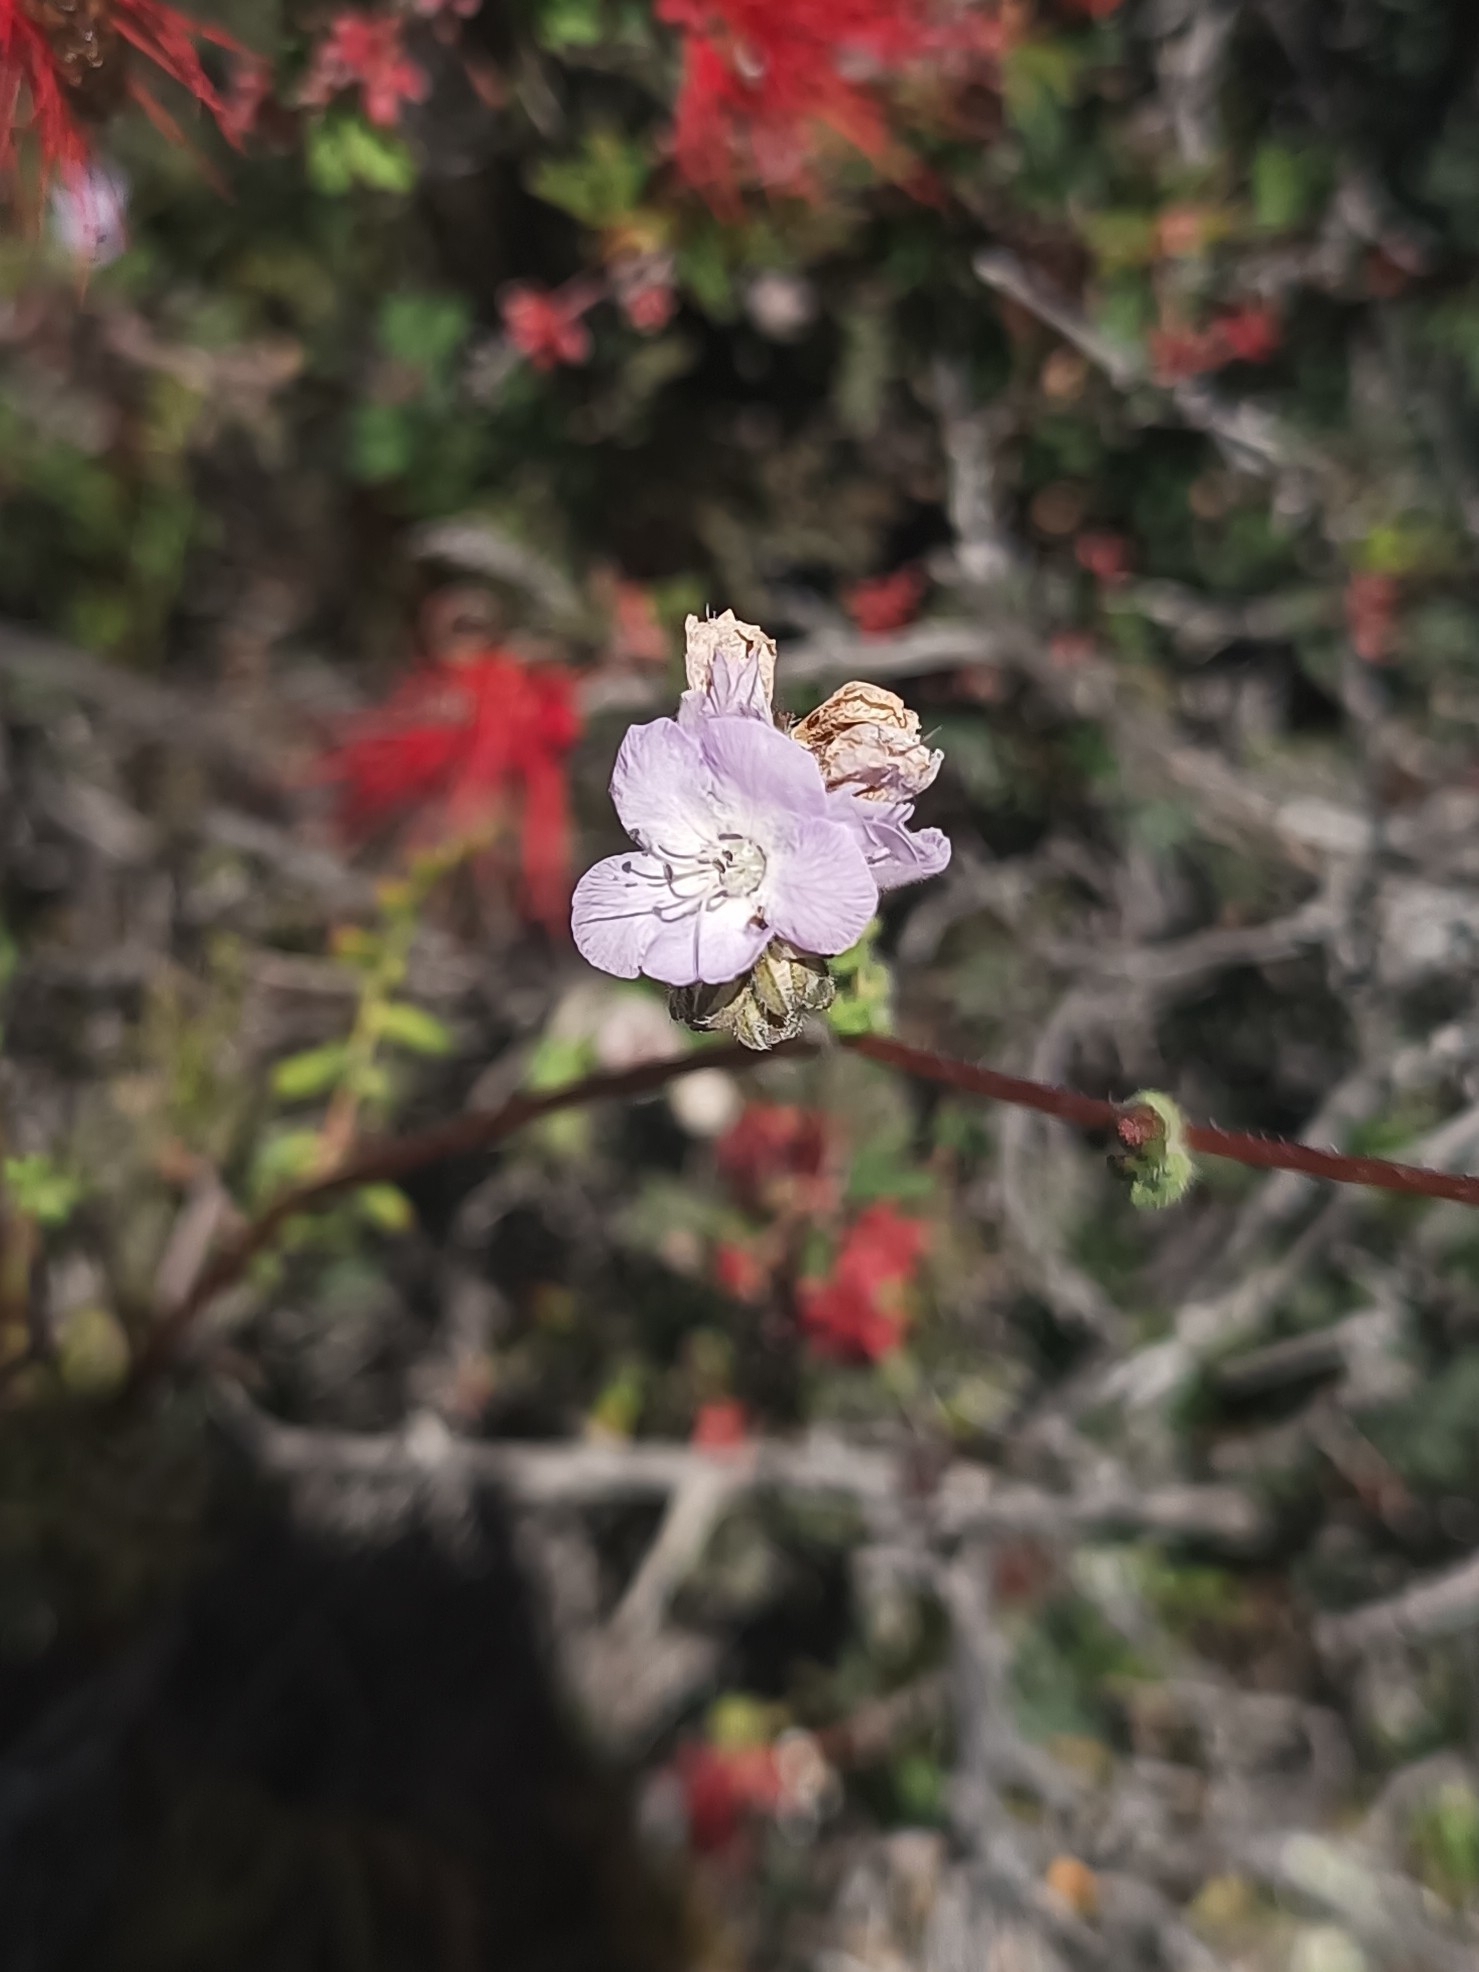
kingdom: Plantae
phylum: Tracheophyta
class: Magnoliopsida
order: Boraginales
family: Hydrophyllaceae
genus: Phacelia
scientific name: Phacelia distans
